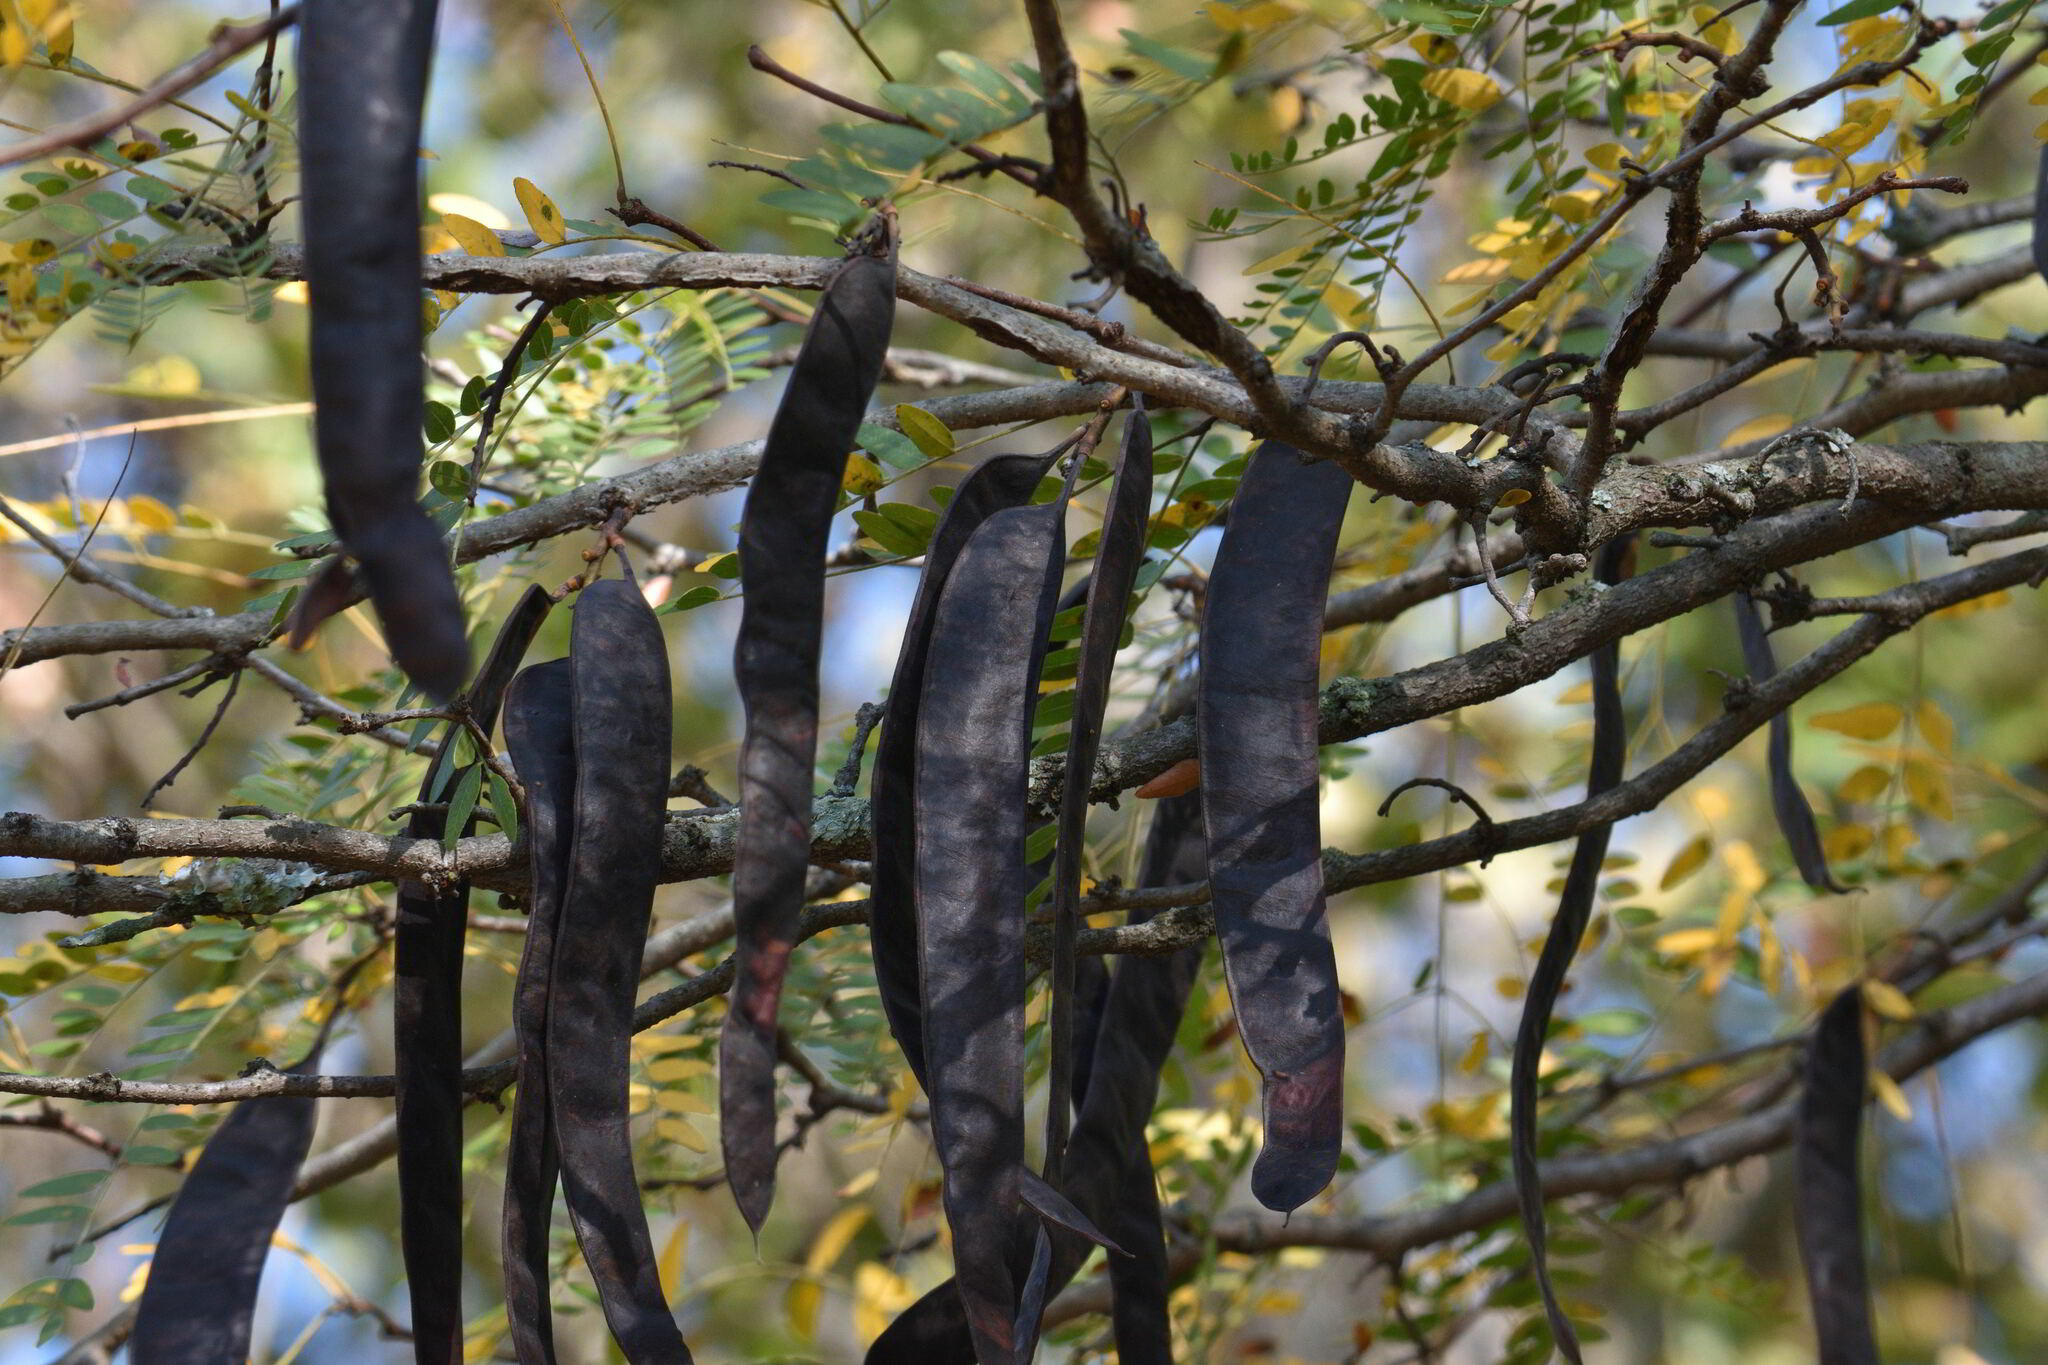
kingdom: Plantae
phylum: Tracheophyta
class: Magnoliopsida
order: Fabales
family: Fabaceae
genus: Gleditsia
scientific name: Gleditsia triacanthos
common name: Common honeylocust
